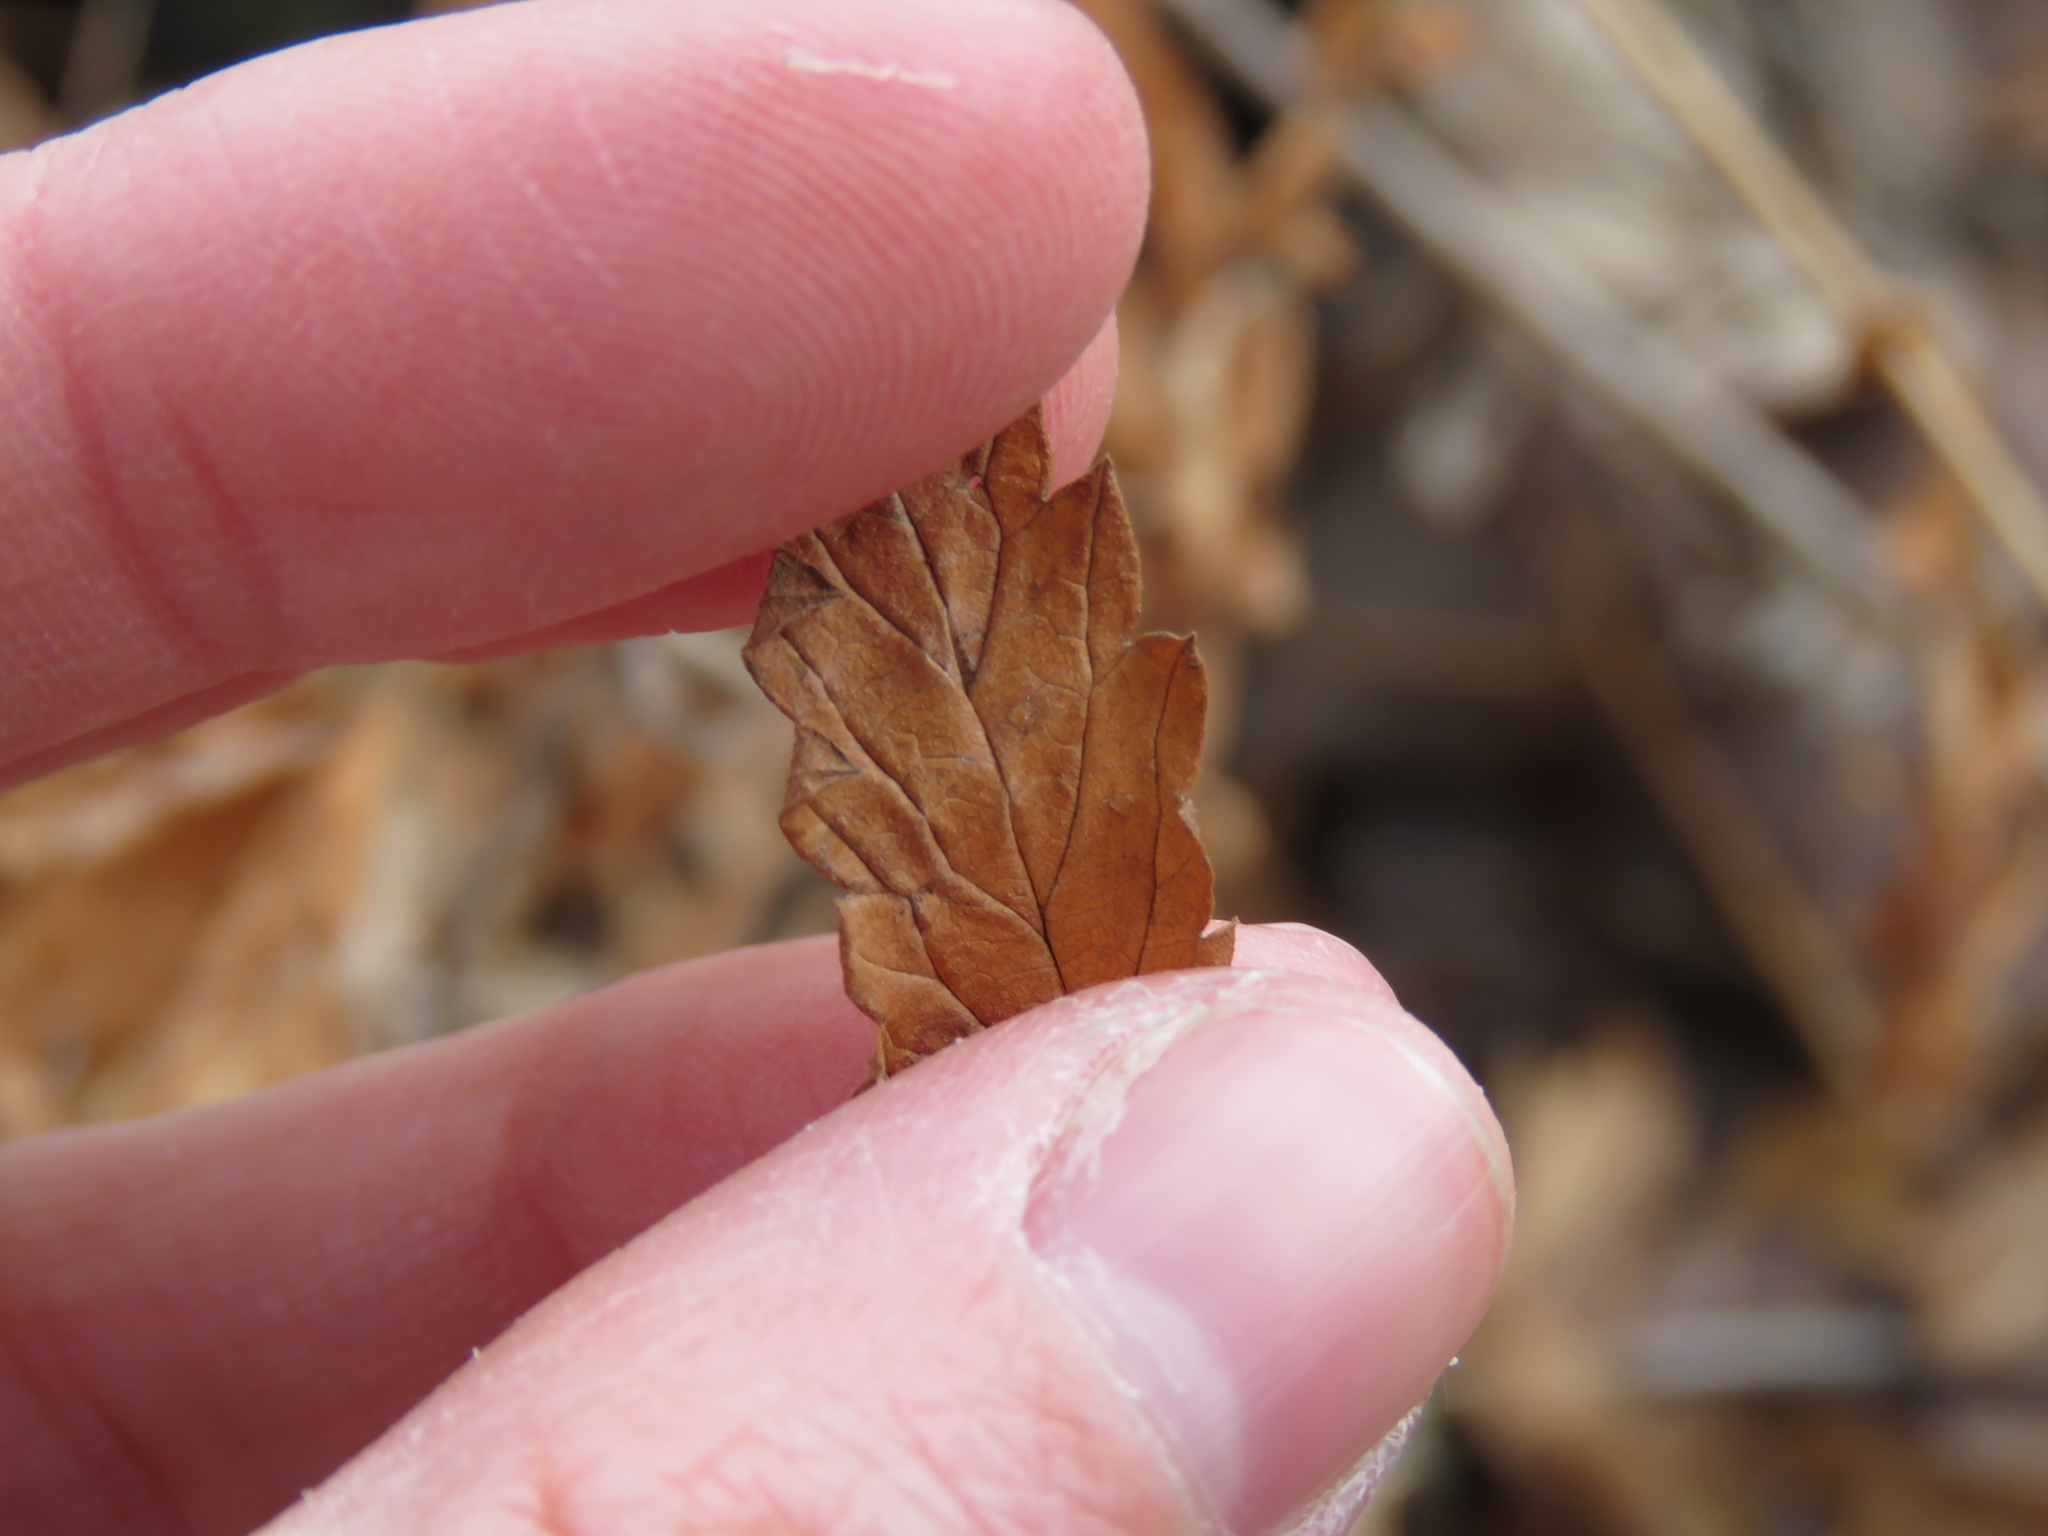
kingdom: Plantae
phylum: Tracheophyta
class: Magnoliopsida
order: Rosales
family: Rosaceae
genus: Agrimonia
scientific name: Agrimonia parviflora
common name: Harvest-lice
